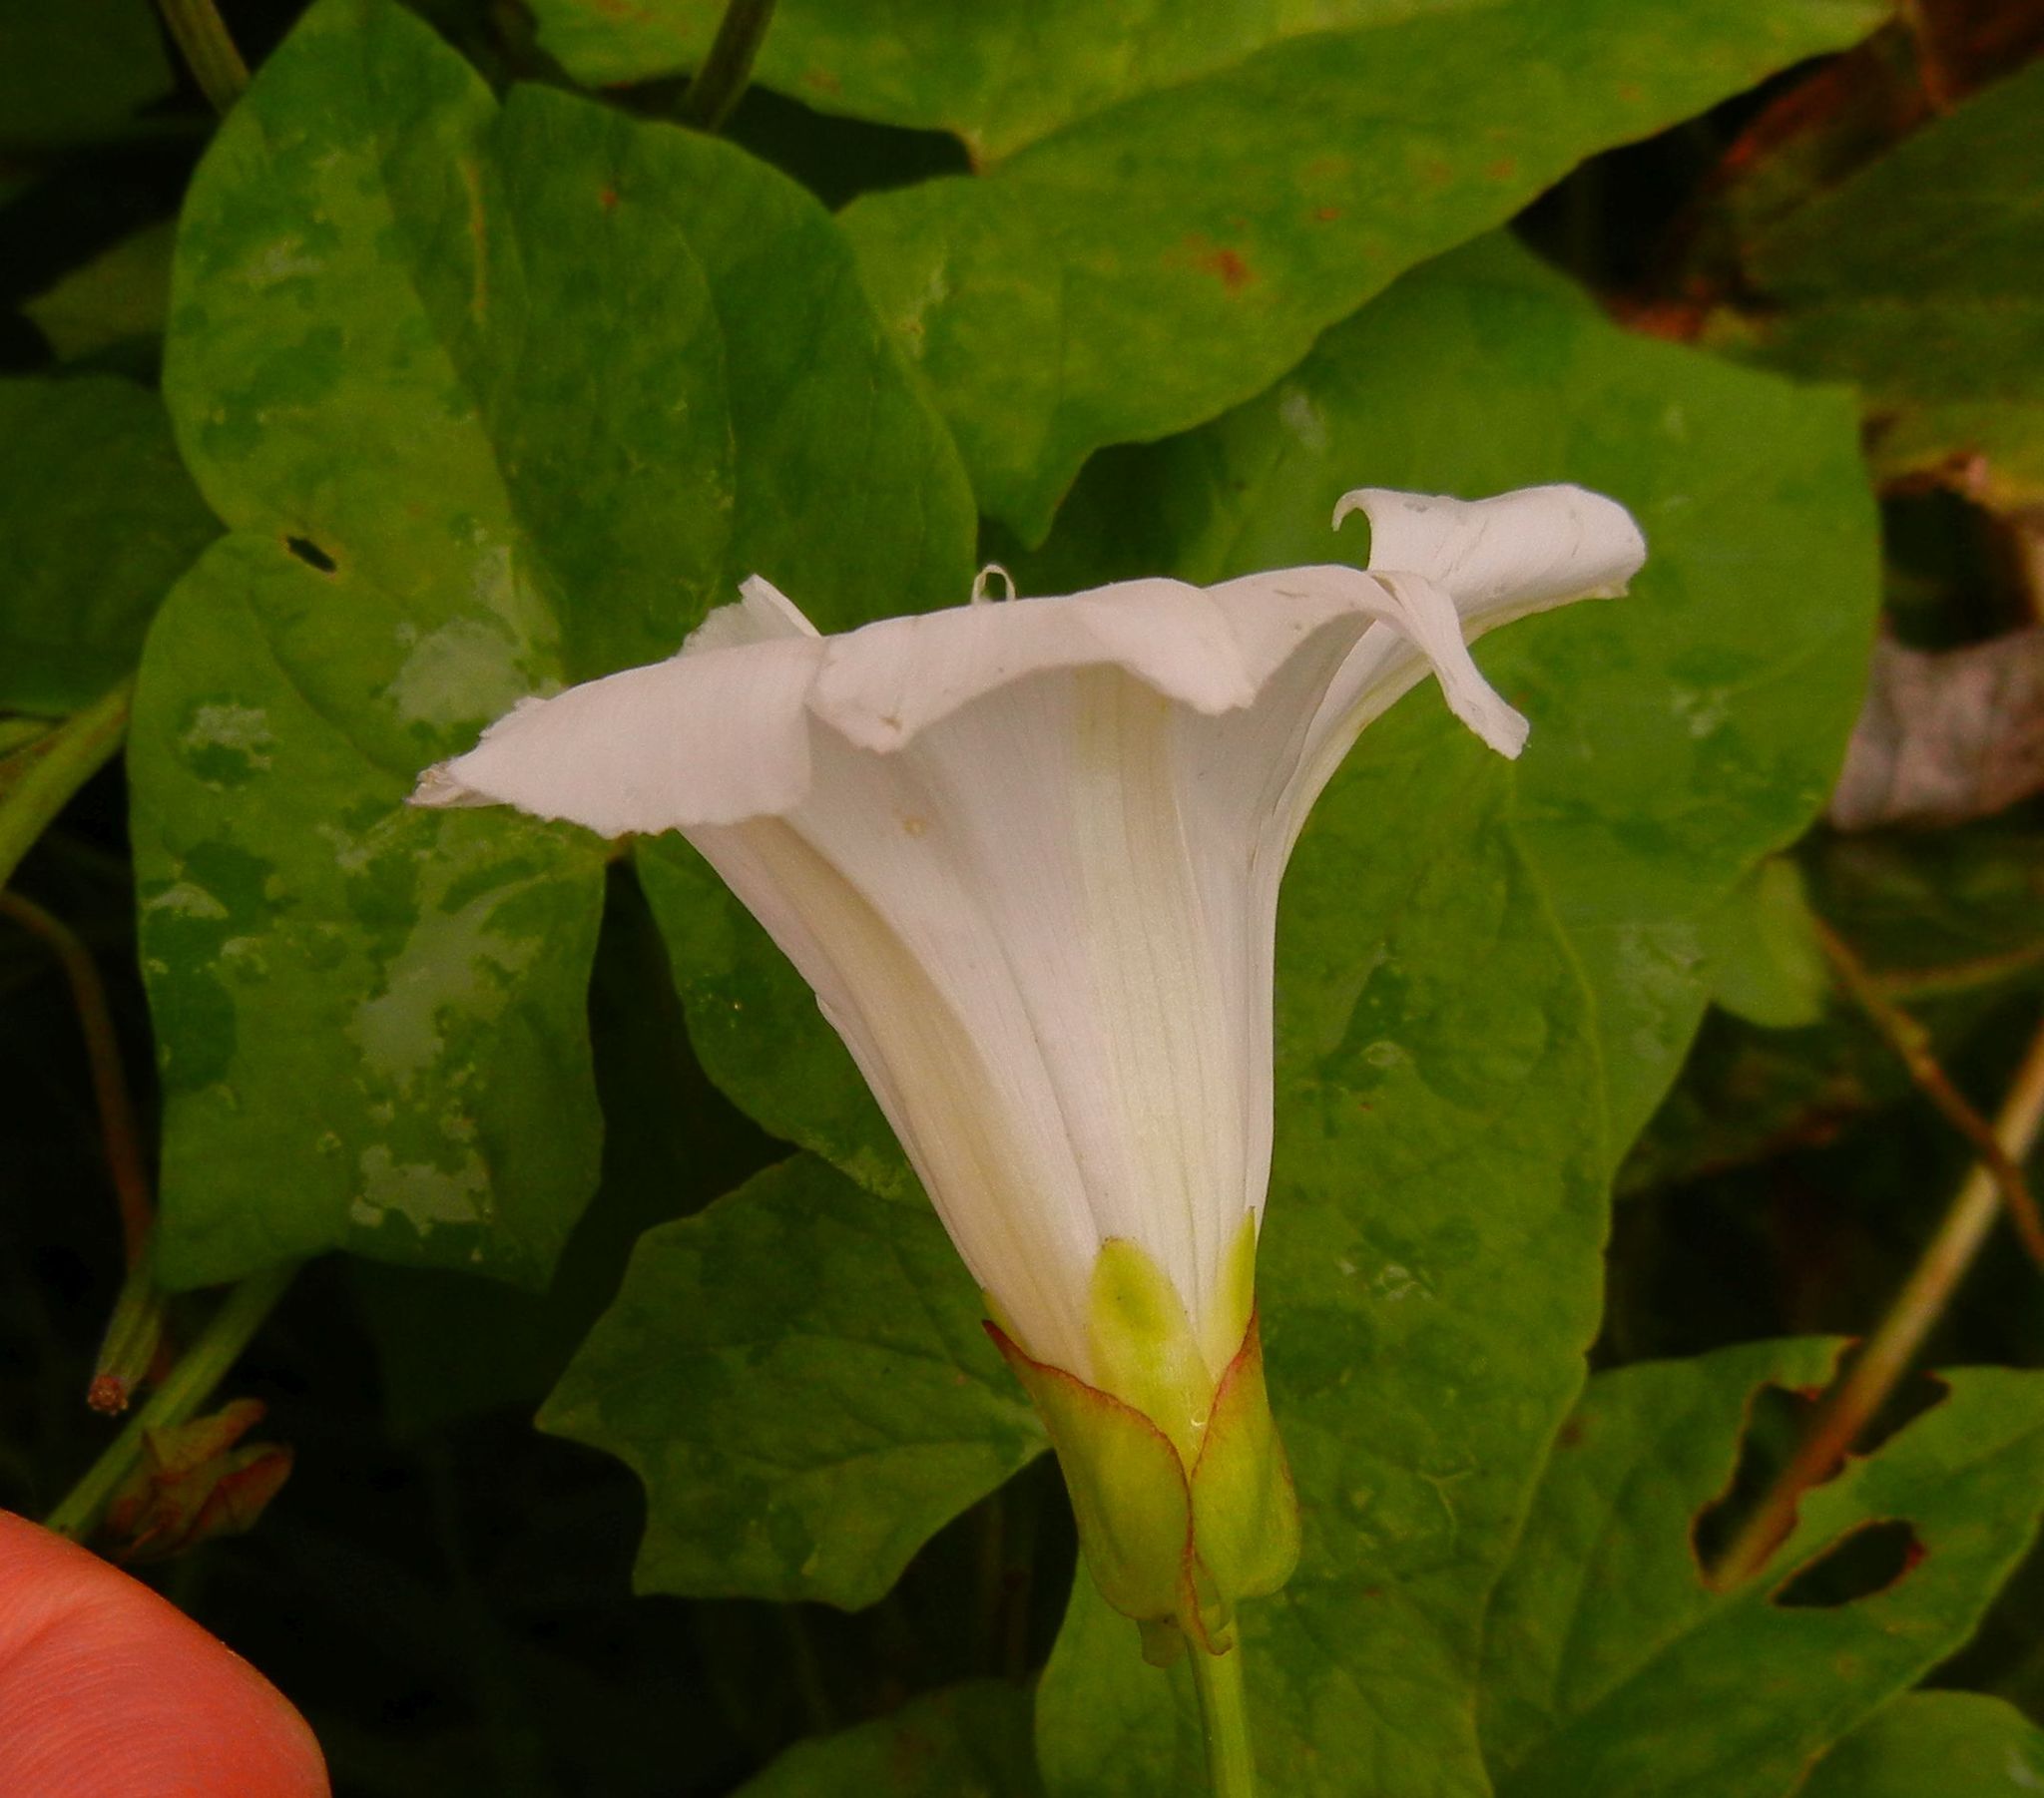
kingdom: Plantae
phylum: Tracheophyta
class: Magnoliopsida
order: Solanales
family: Convolvulaceae
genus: Calystegia
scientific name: Calystegia sepium
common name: Hedge bindweed
